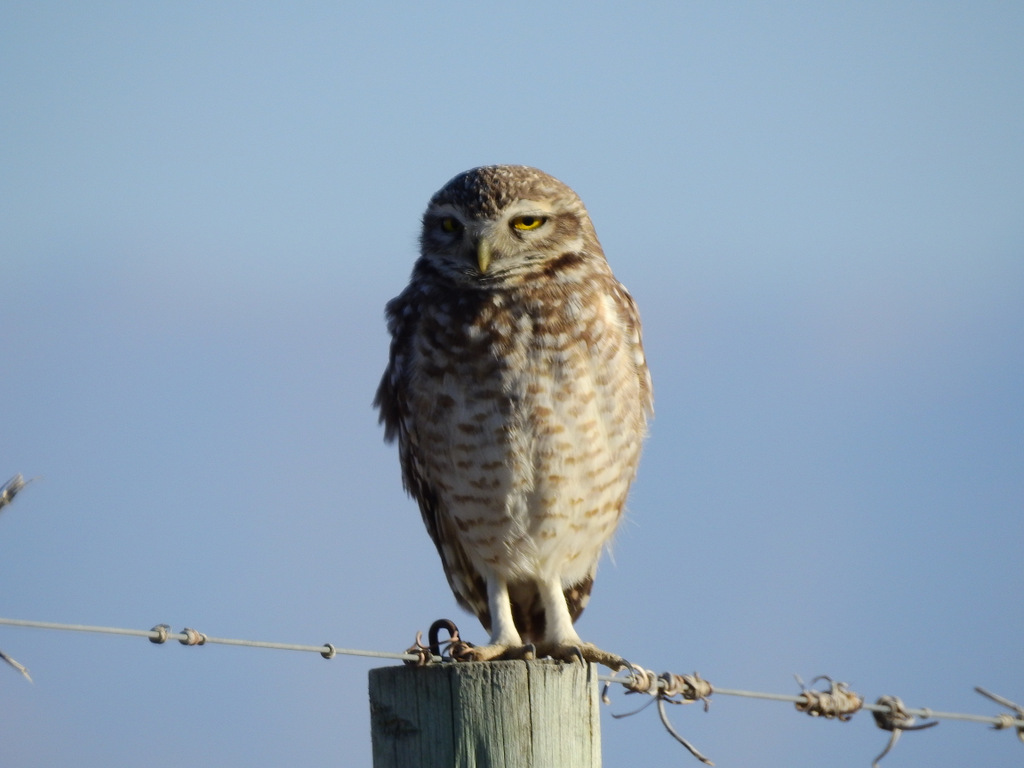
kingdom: Animalia
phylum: Chordata
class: Aves
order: Strigiformes
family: Strigidae
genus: Athene
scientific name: Athene cunicularia
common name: Burrowing owl
